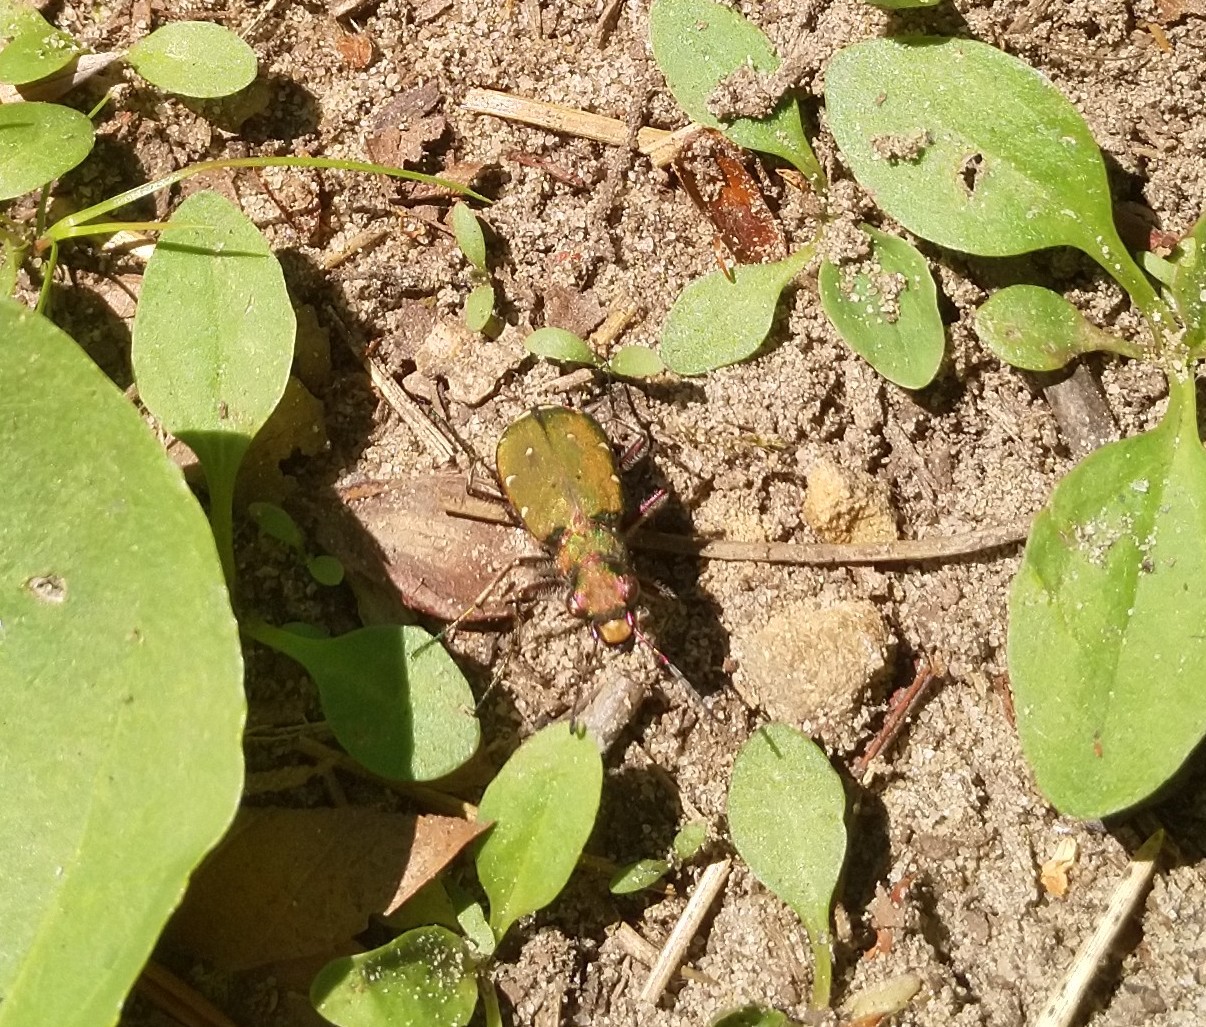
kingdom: Animalia
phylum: Arthropoda
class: Insecta
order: Coleoptera
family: Carabidae
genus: Cicindela
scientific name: Cicindela campestris
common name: Common tiger beetle
